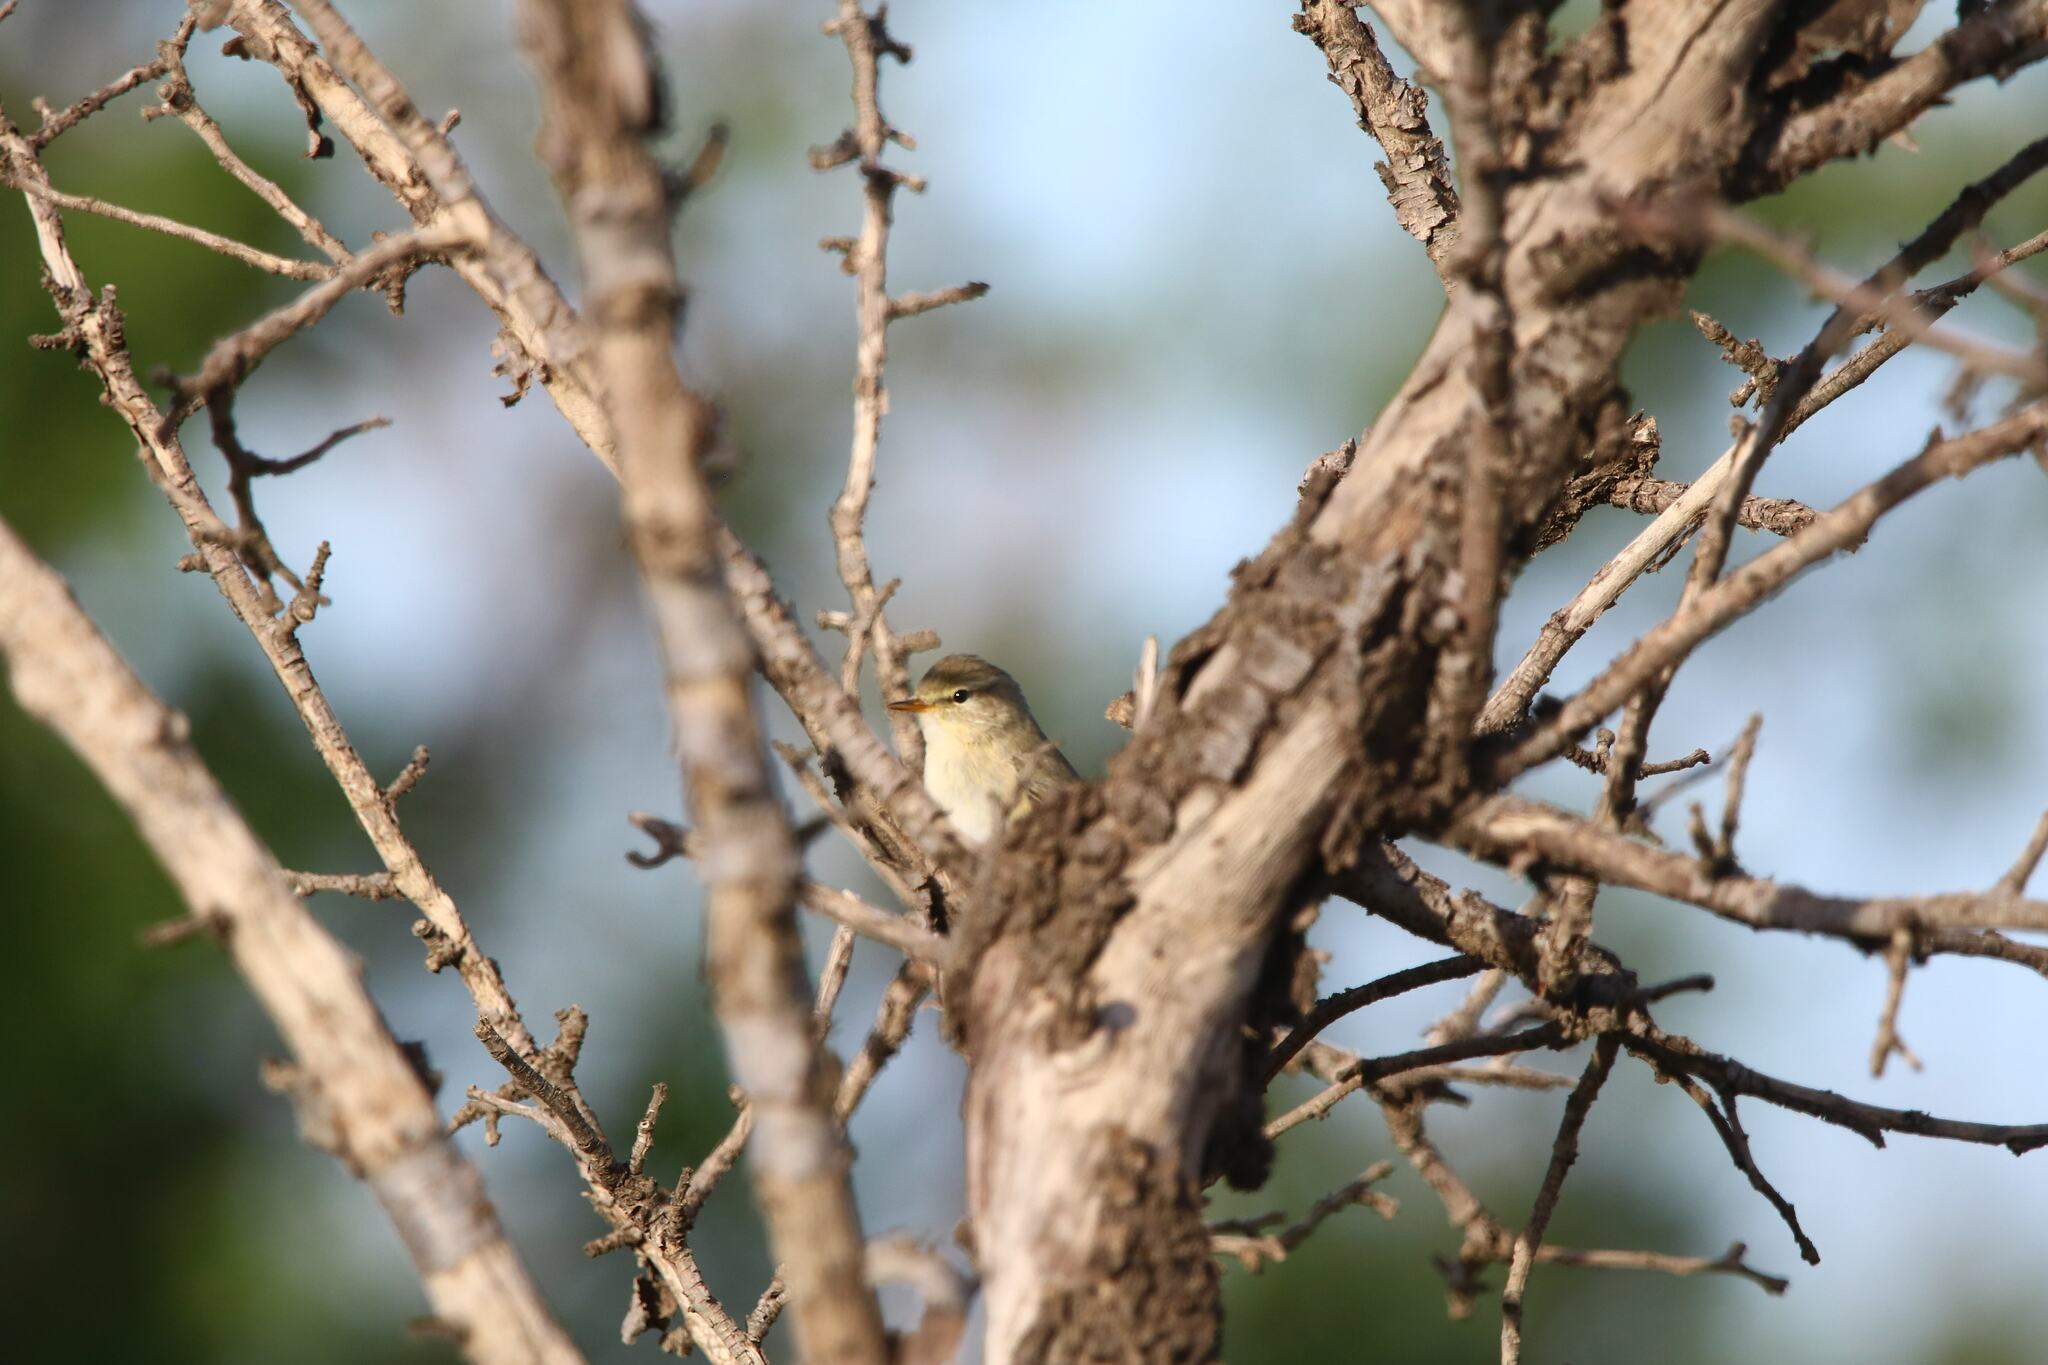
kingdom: Animalia
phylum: Chordata
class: Aves
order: Passeriformes
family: Phylloscopidae
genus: Phylloscopus
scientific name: Phylloscopus collybita
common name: Common chiffchaff
